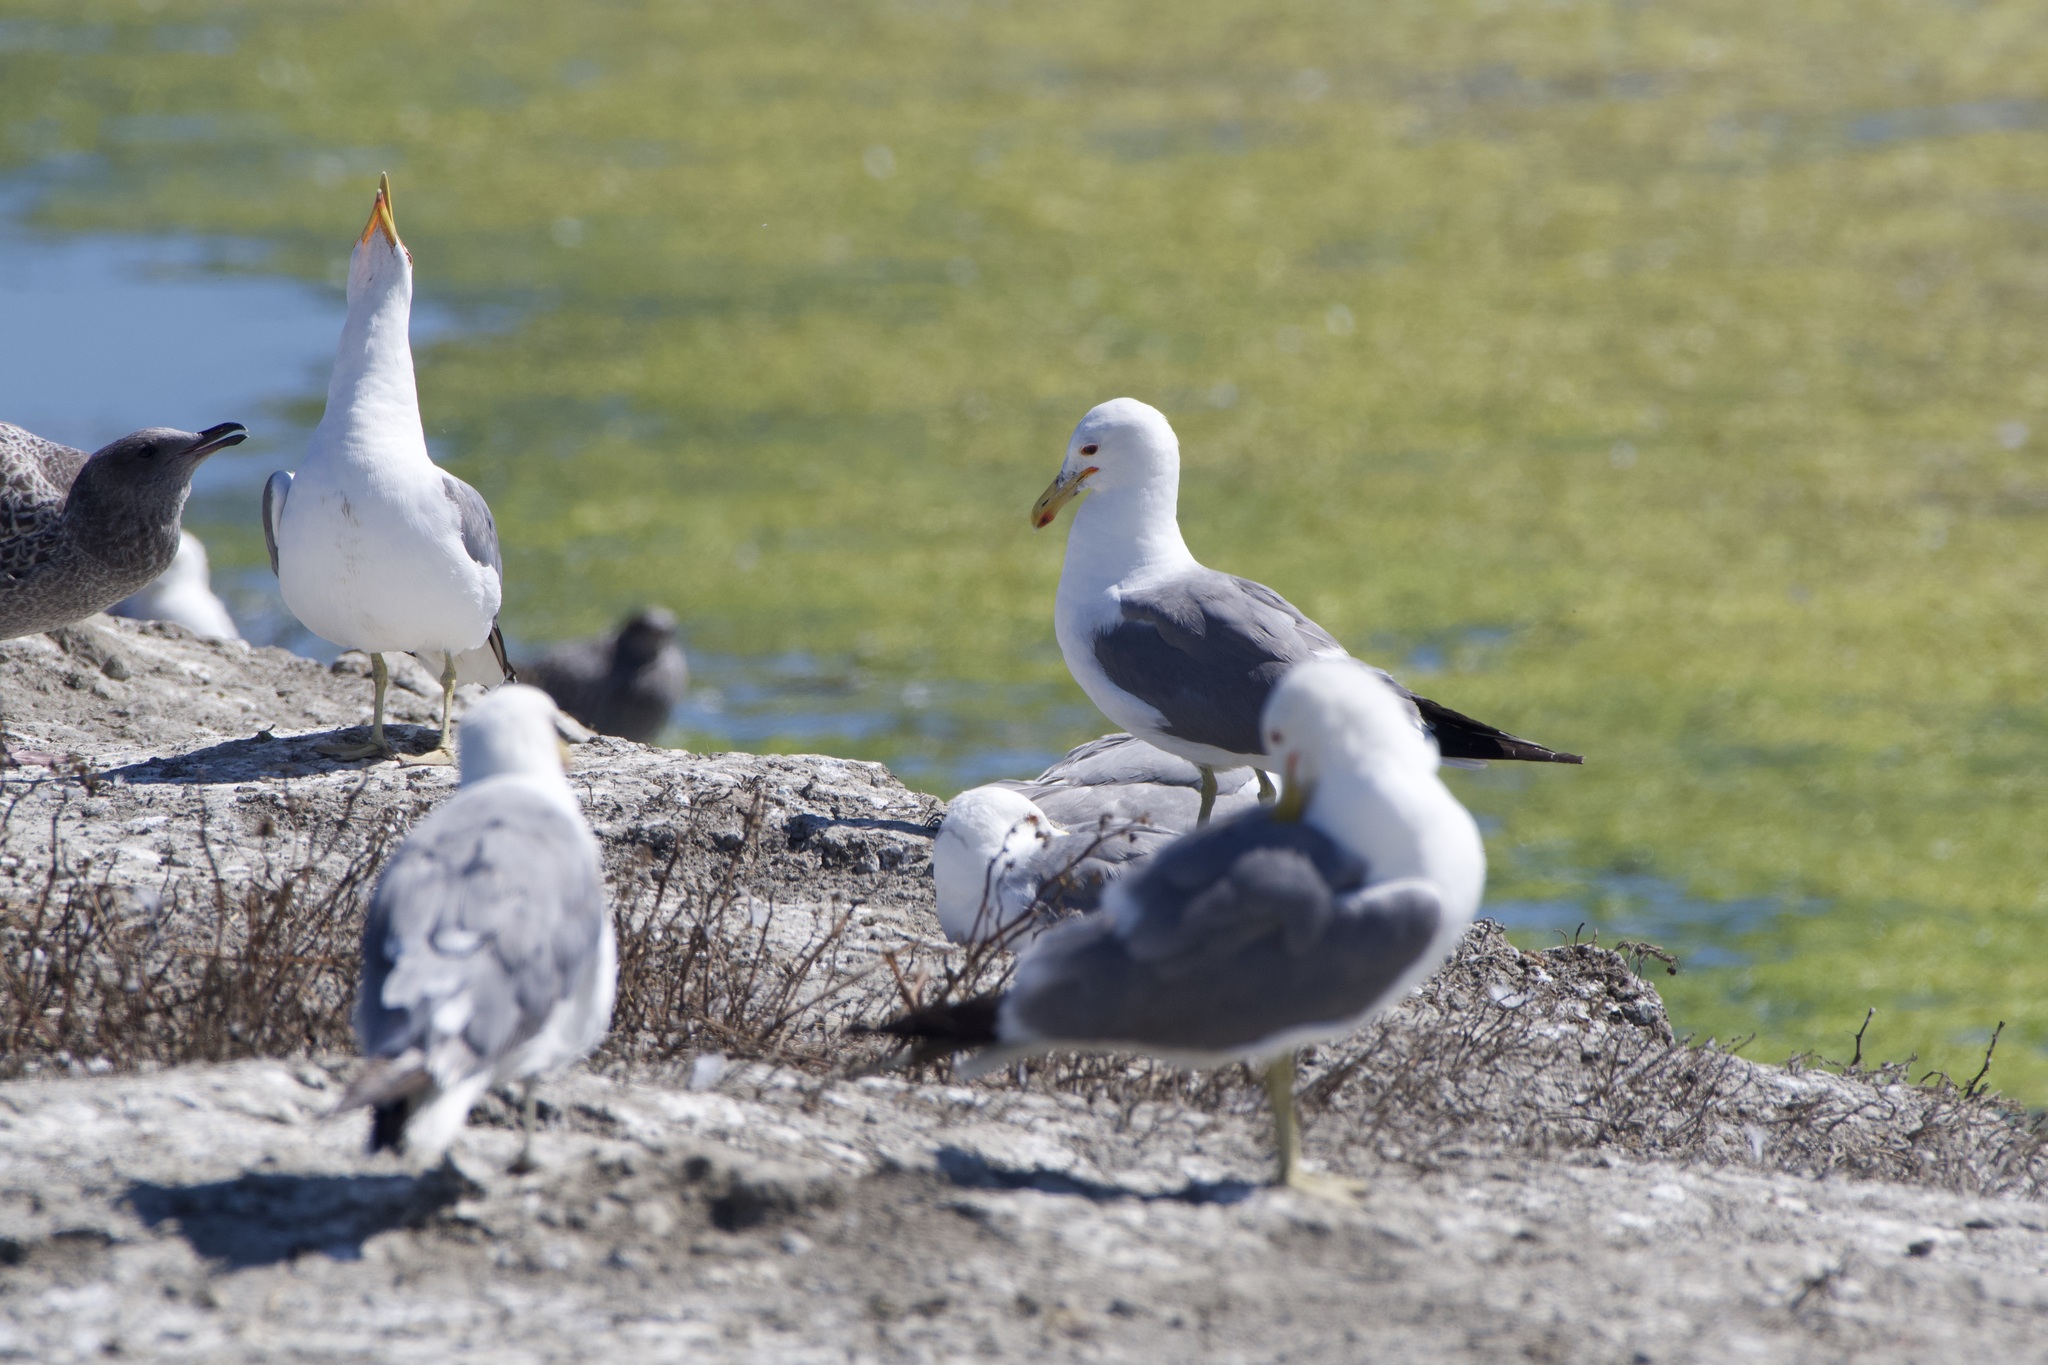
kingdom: Animalia
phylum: Chordata
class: Aves
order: Charadriiformes
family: Laridae
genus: Larus
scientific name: Larus californicus
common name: California gull
